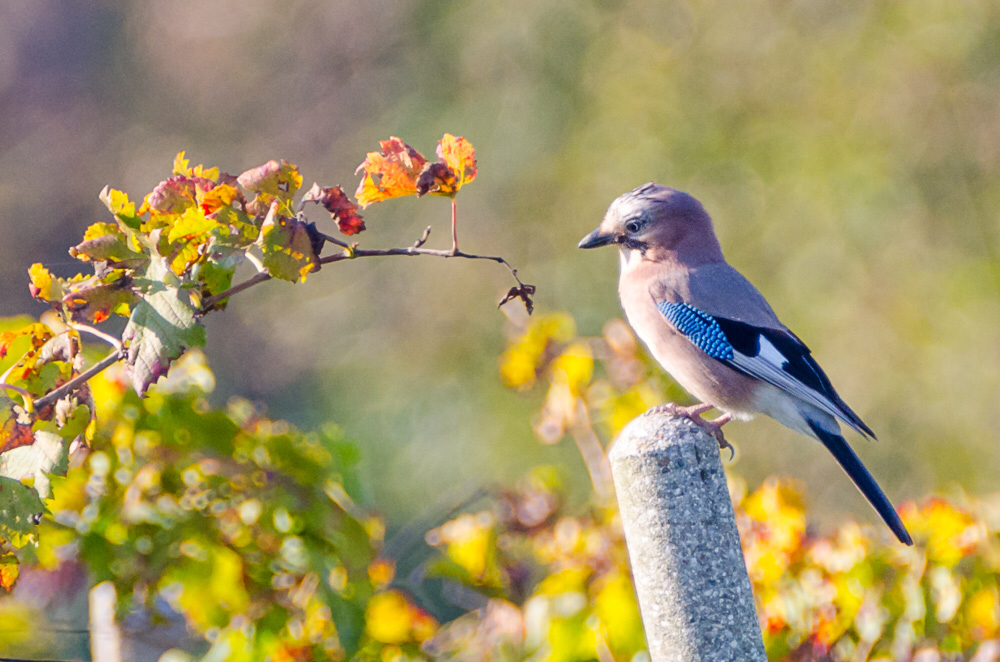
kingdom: Animalia
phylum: Chordata
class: Aves
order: Passeriformes
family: Corvidae
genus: Garrulus
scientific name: Garrulus glandarius
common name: Eurasian jay
